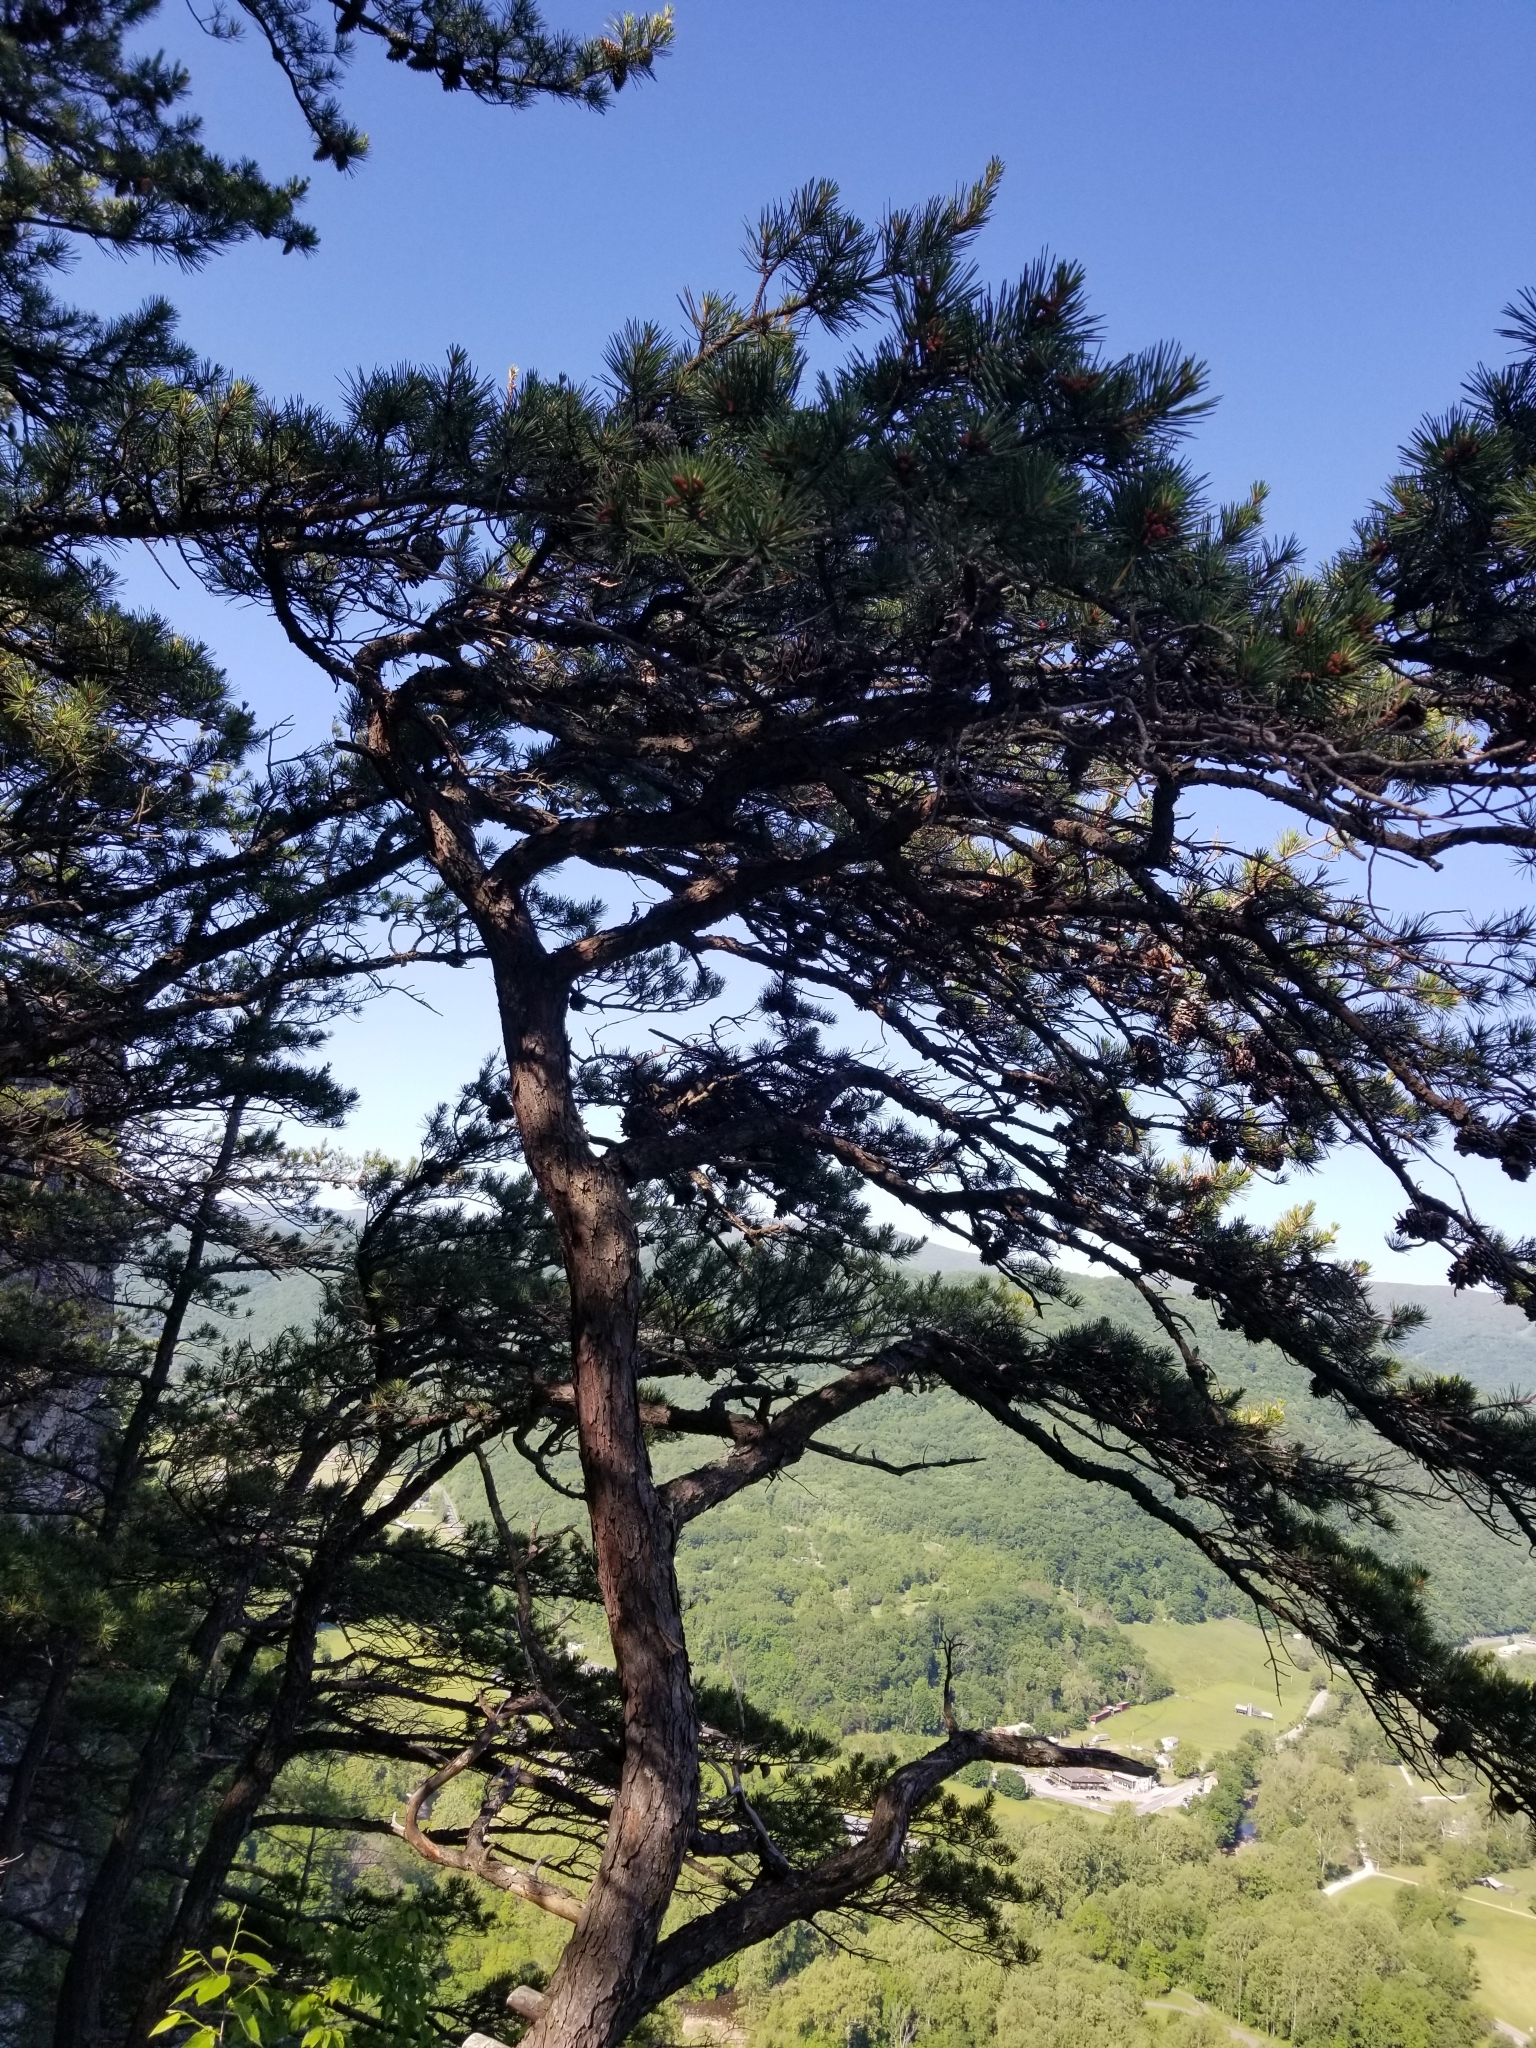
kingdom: Plantae
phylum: Tracheophyta
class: Pinopsida
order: Pinales
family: Pinaceae
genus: Pinus
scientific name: Pinus pungens
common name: Hickory pine
